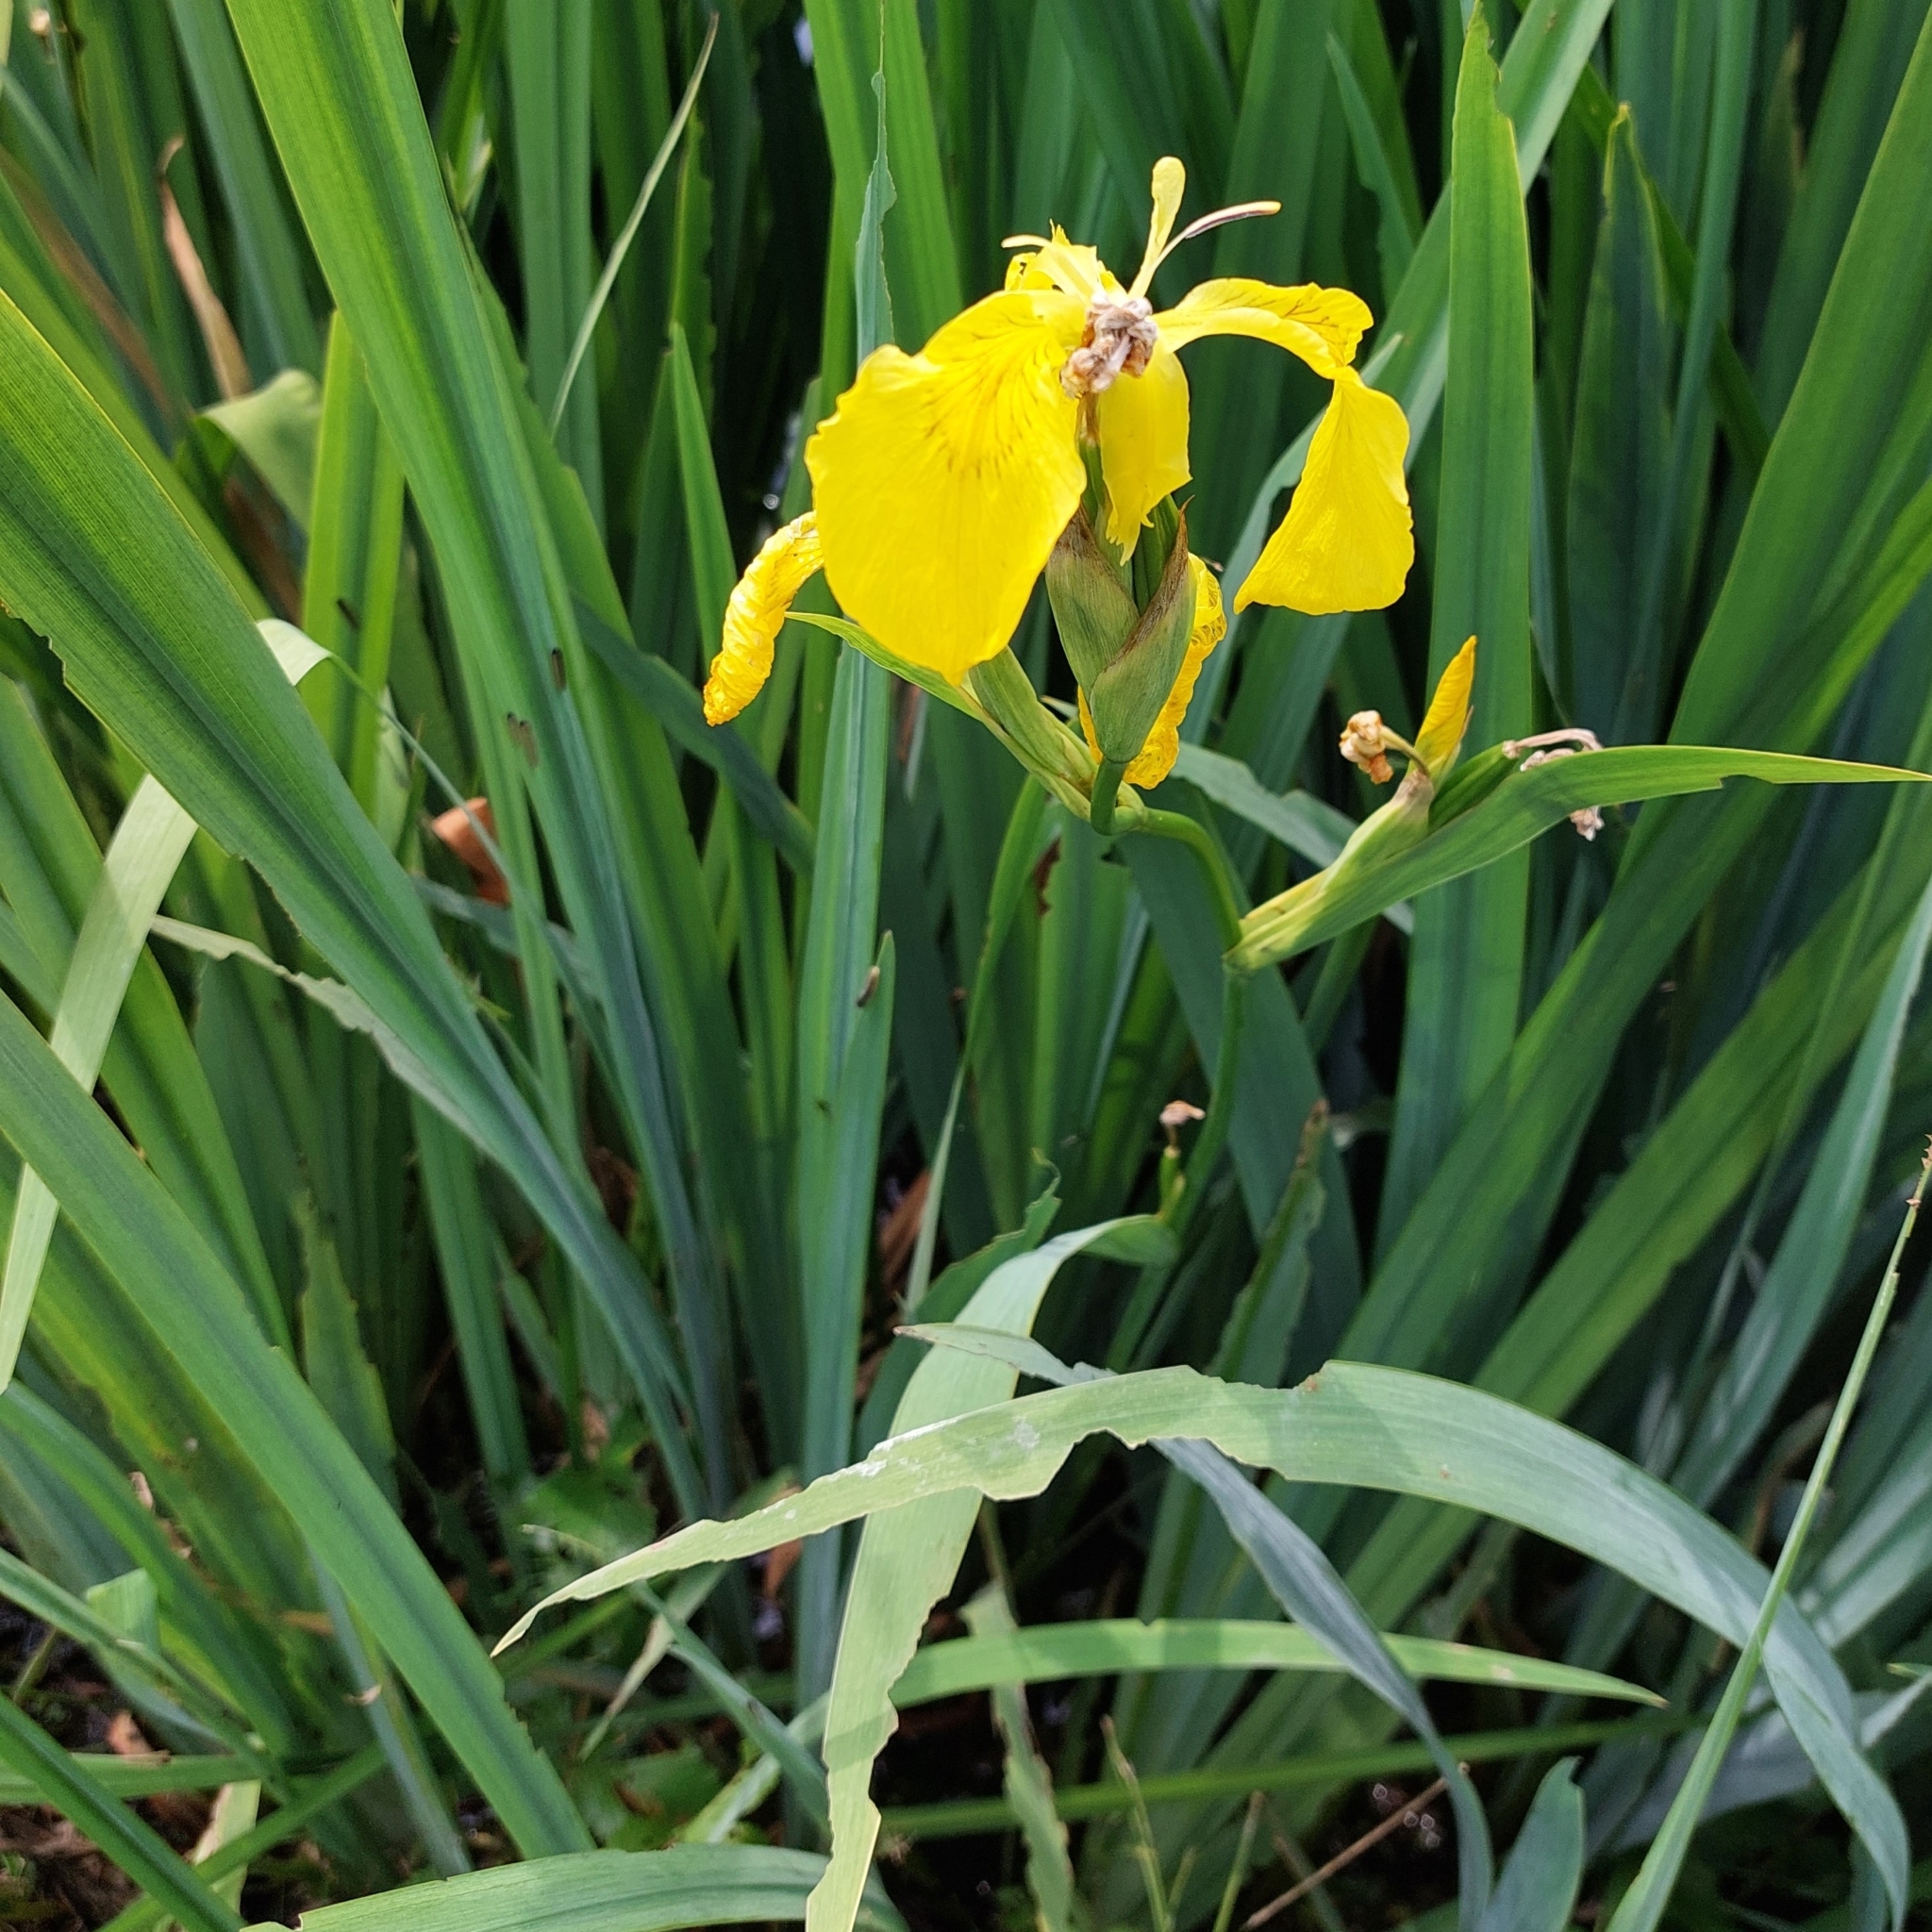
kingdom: Plantae
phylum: Tracheophyta
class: Liliopsida
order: Asparagales
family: Iridaceae
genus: Iris
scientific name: Iris pseudacorus
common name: Yellow flag
